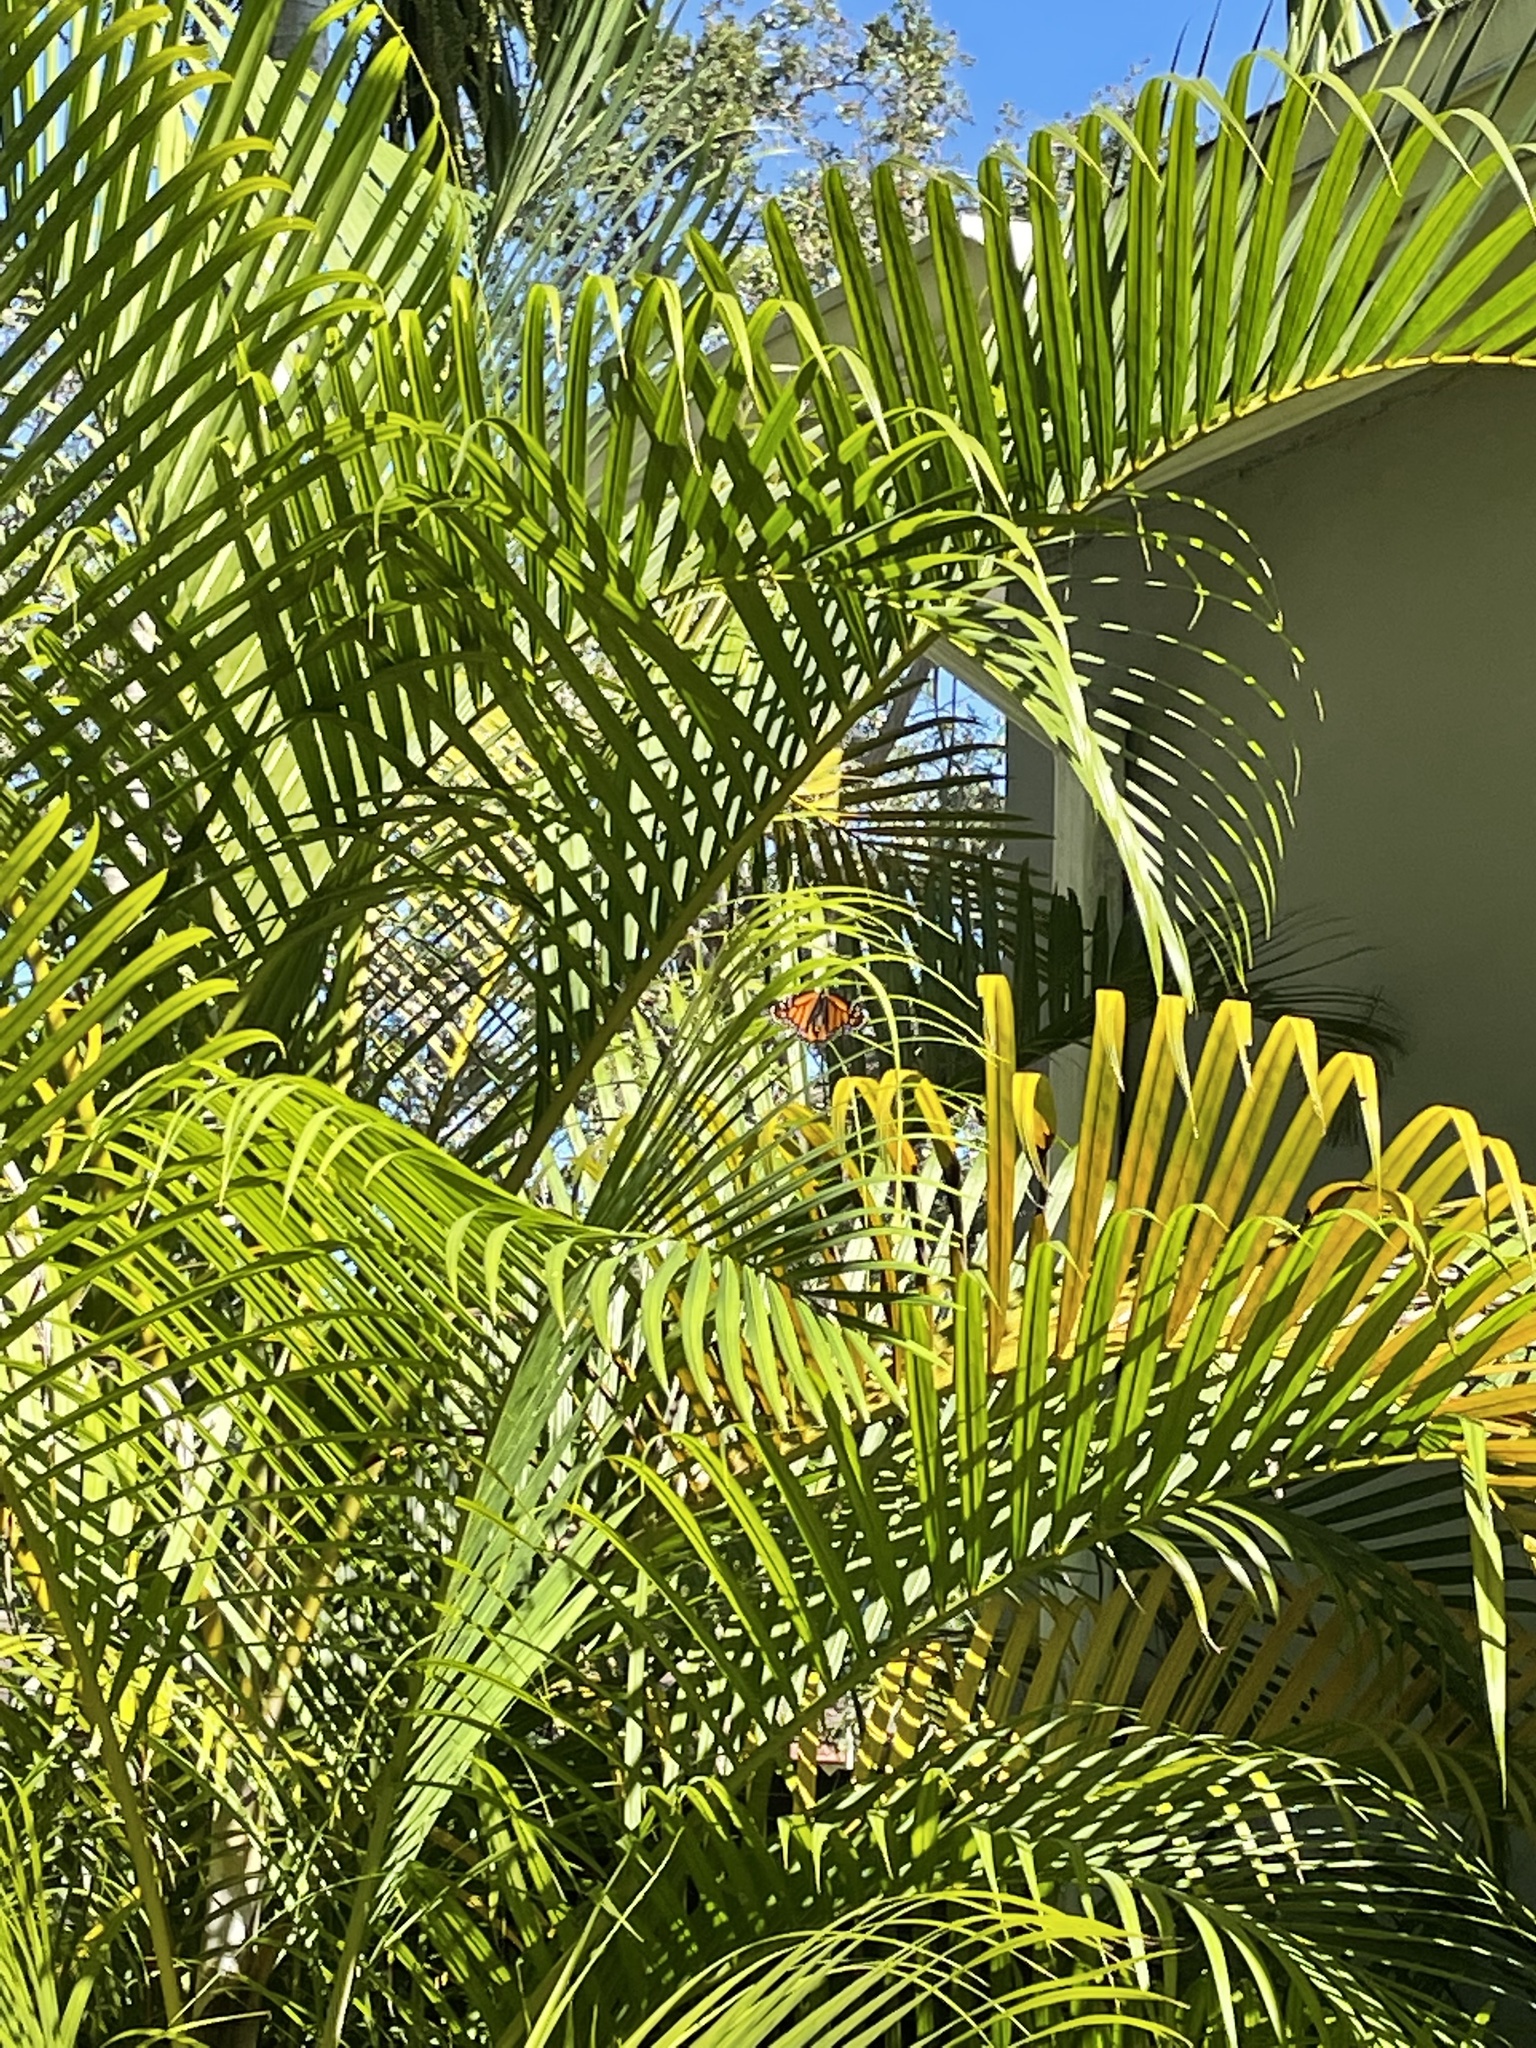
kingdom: Animalia
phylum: Arthropoda
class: Insecta
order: Lepidoptera
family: Nymphalidae
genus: Danaus
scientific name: Danaus plexippus
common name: Monarch
